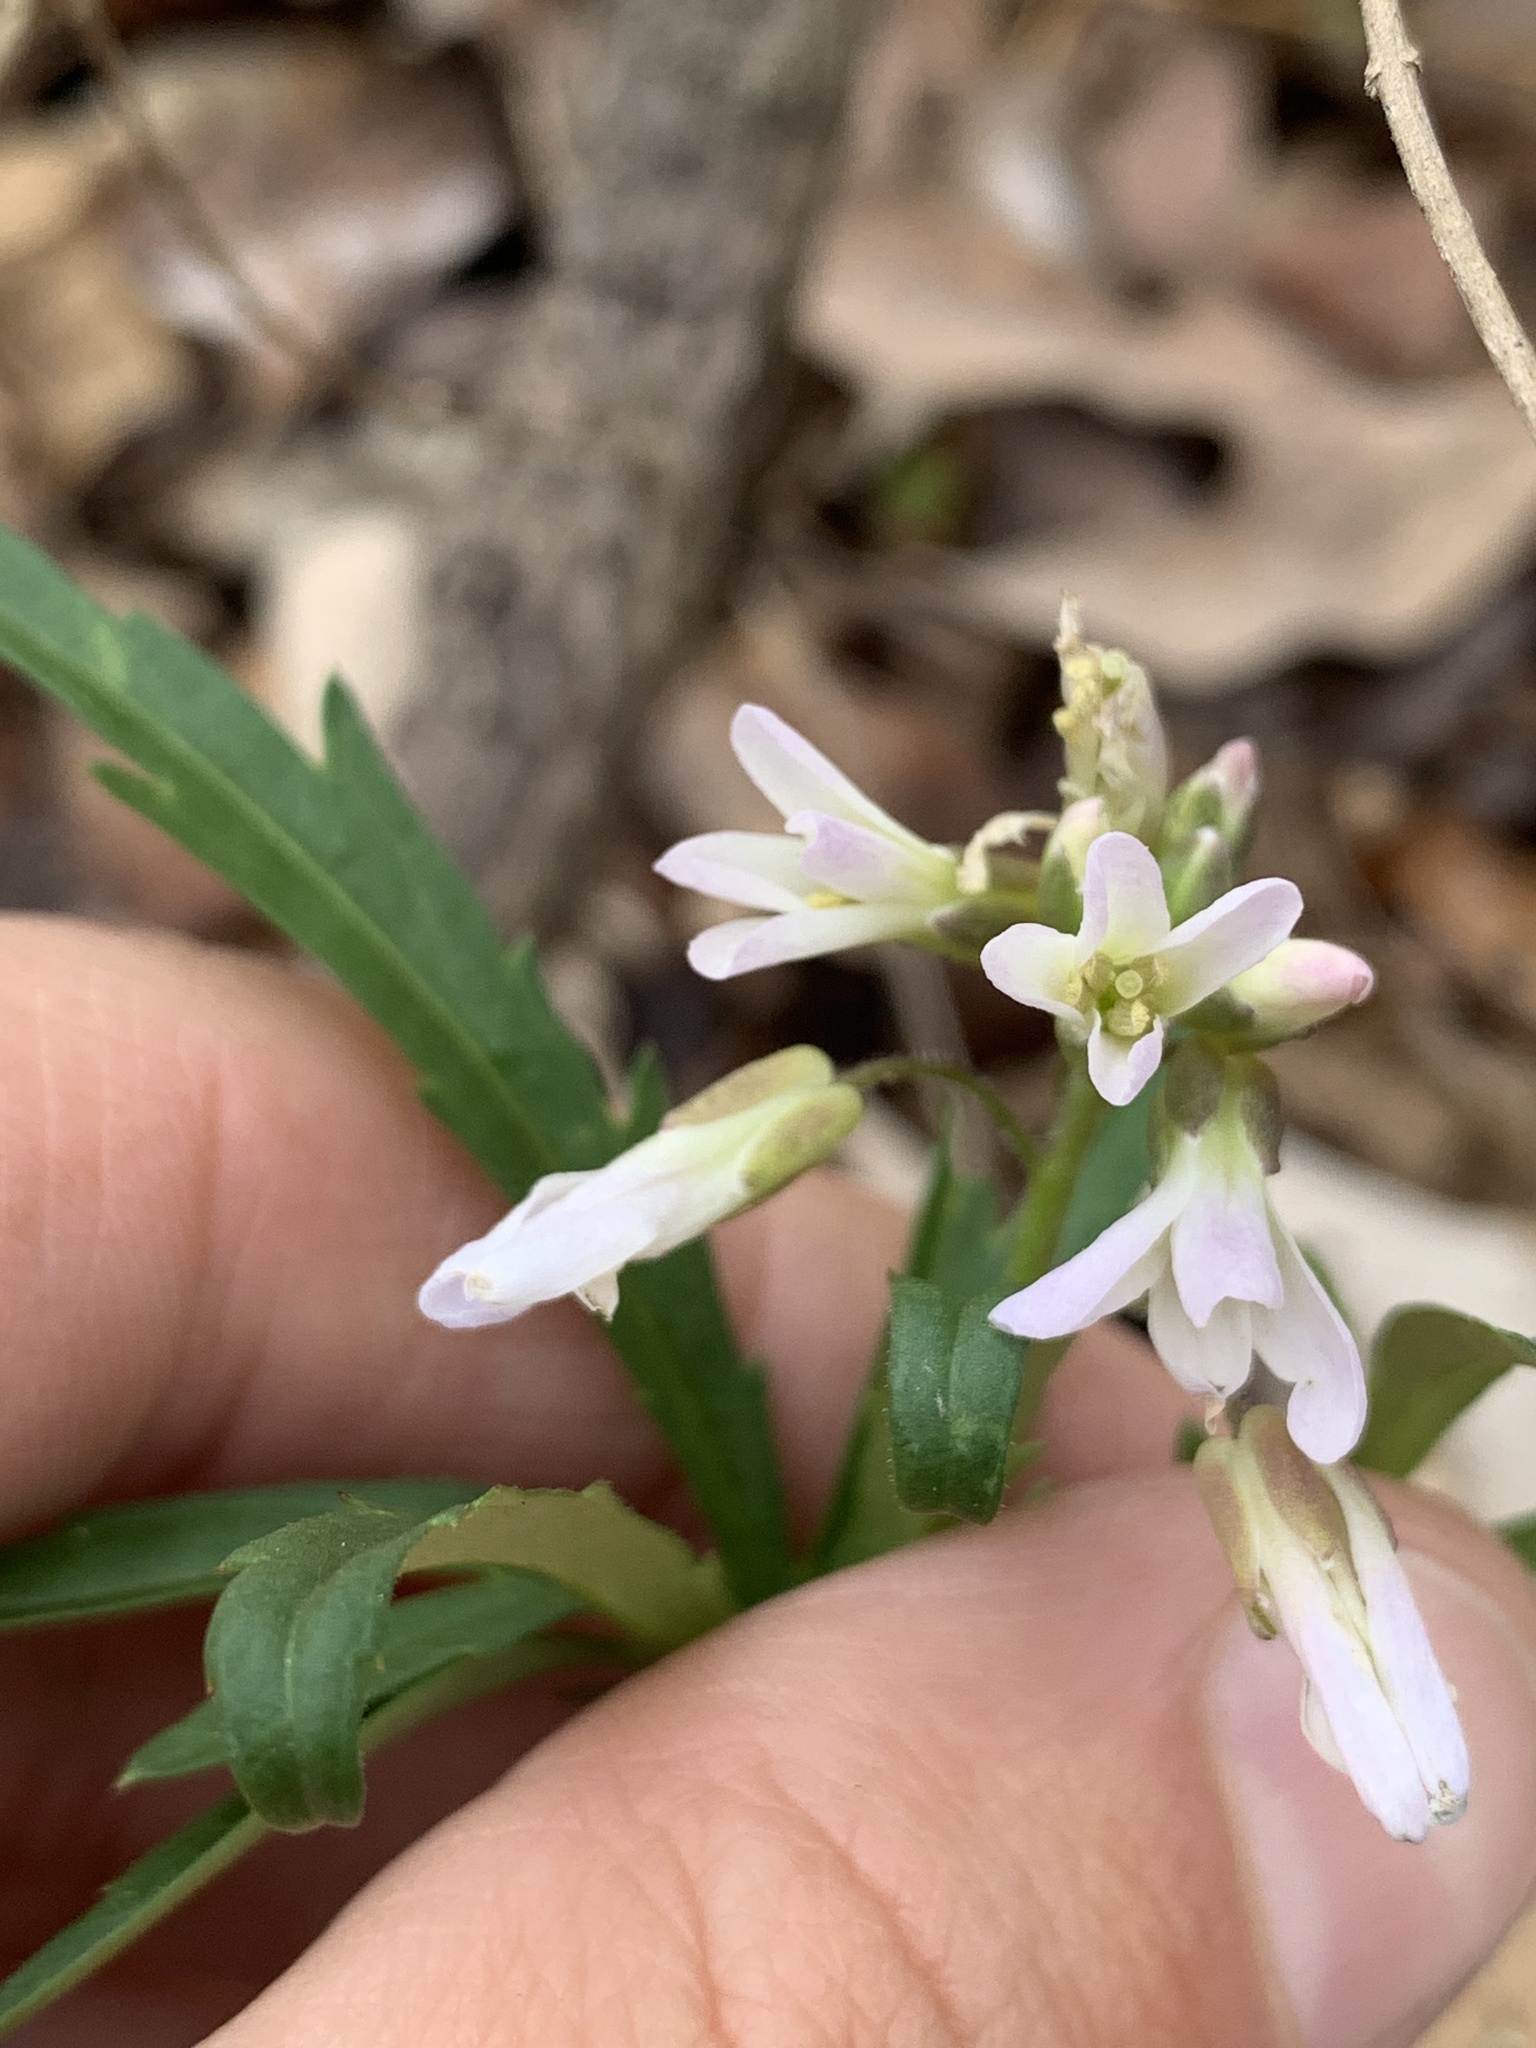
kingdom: Plantae
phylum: Tracheophyta
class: Magnoliopsida
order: Brassicales
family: Brassicaceae
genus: Cardamine
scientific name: Cardamine concatenata
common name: Cut-leaf toothcup
